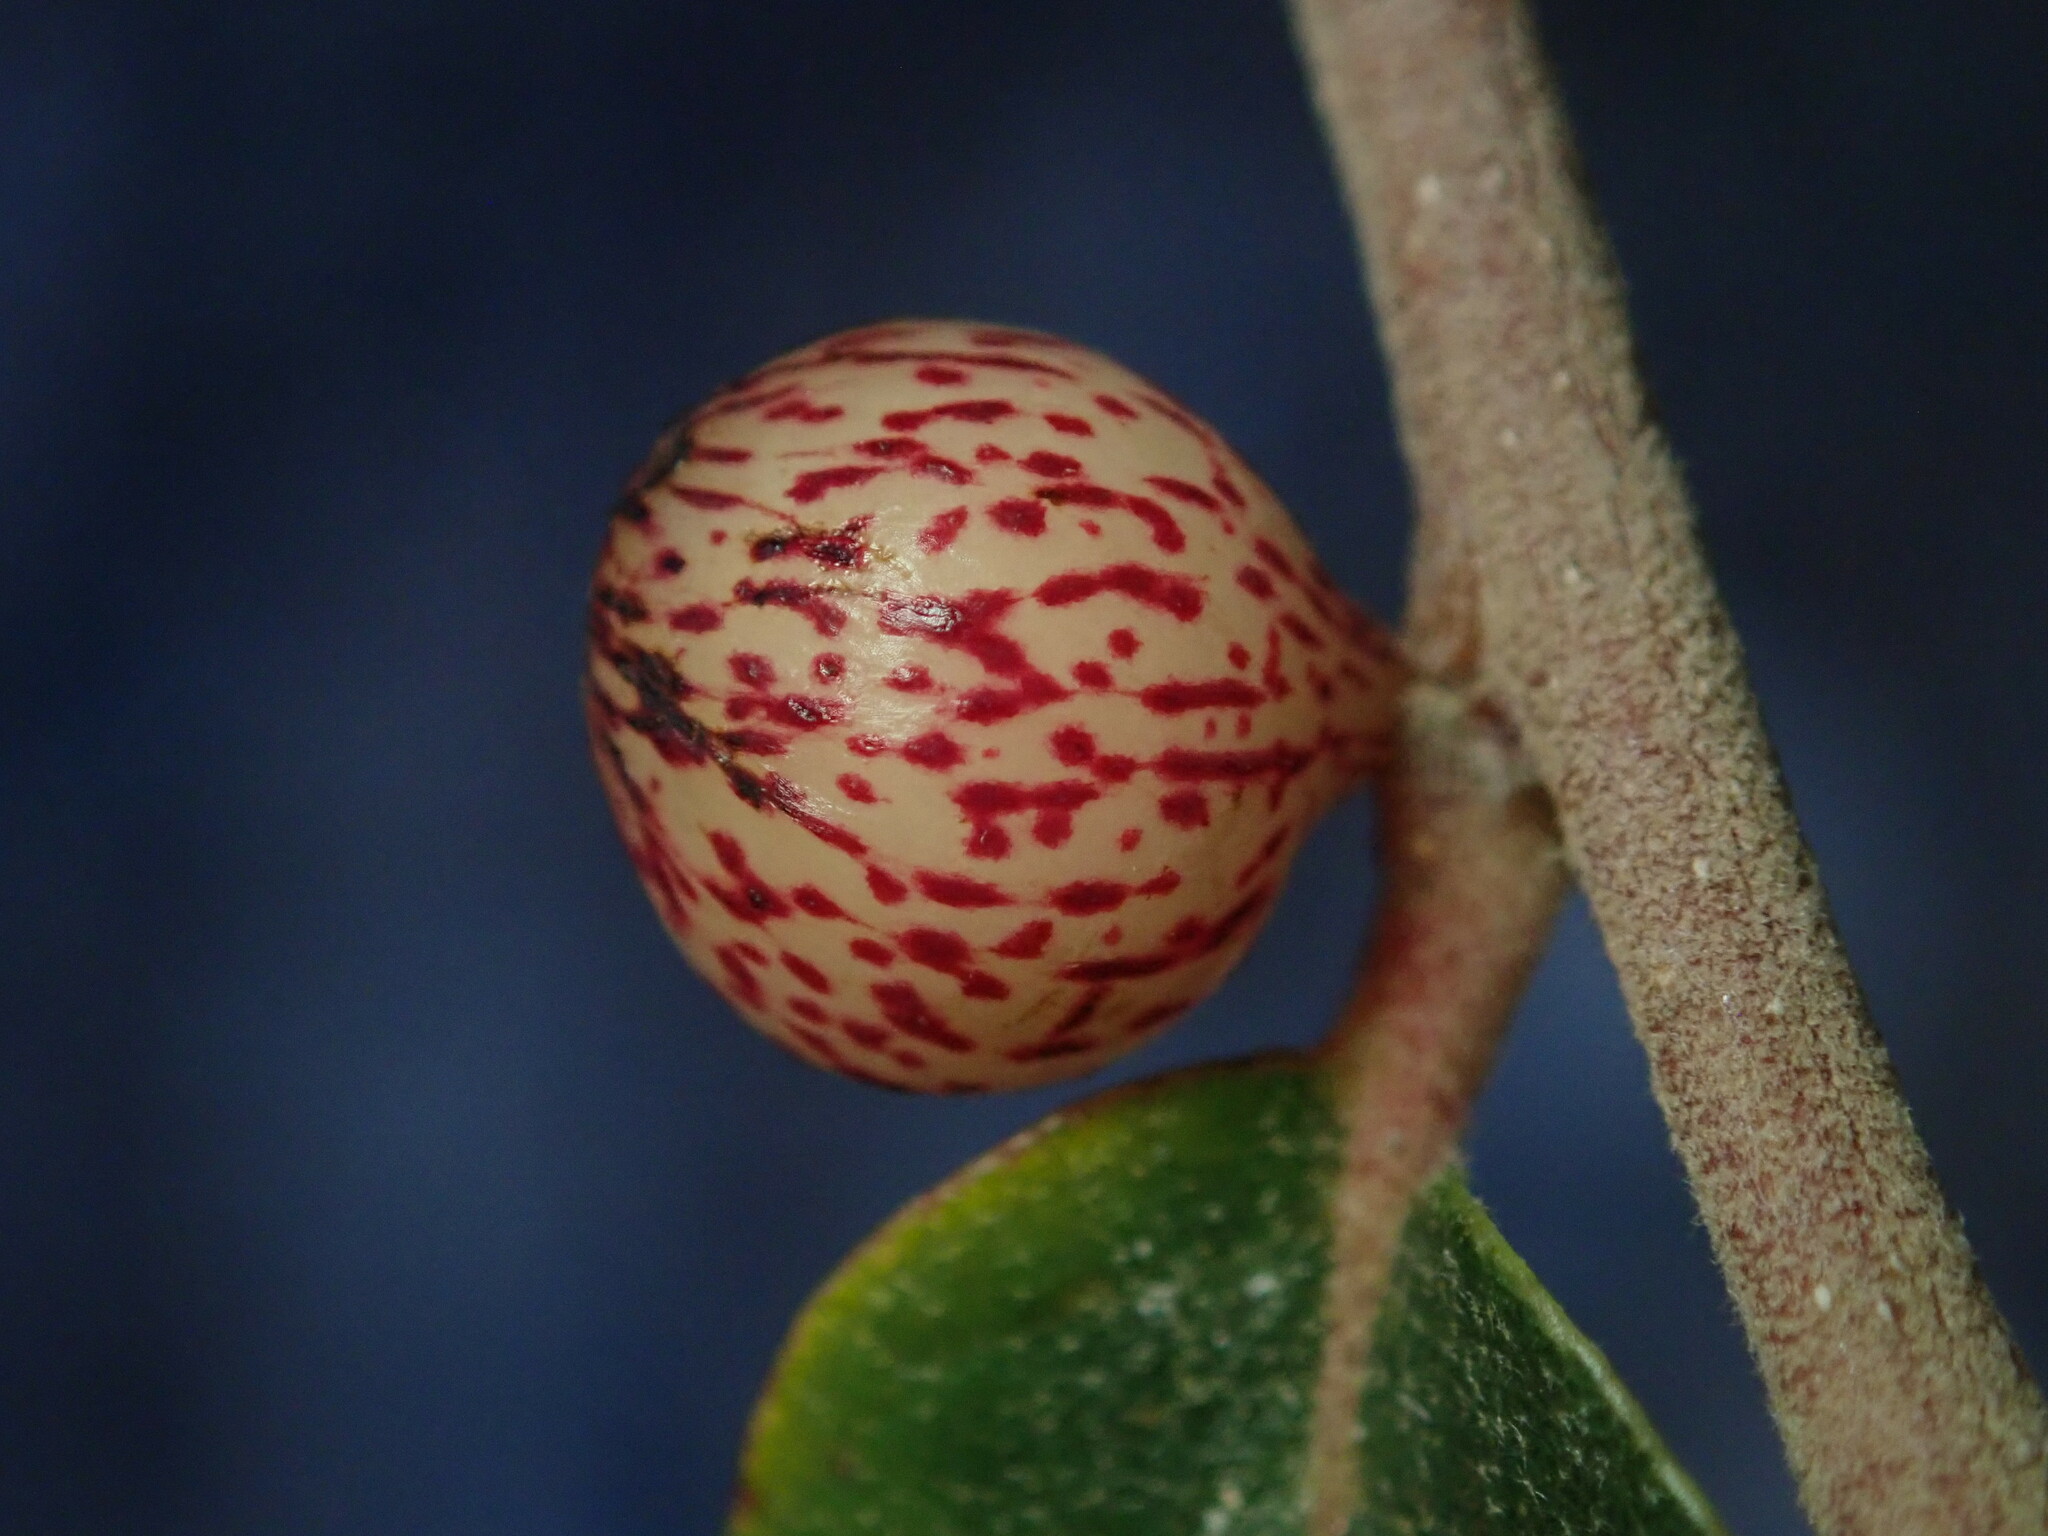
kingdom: Animalia
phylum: Arthropoda
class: Insecta
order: Hymenoptera
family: Cynipidae
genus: Atrusca
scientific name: Atrusca
